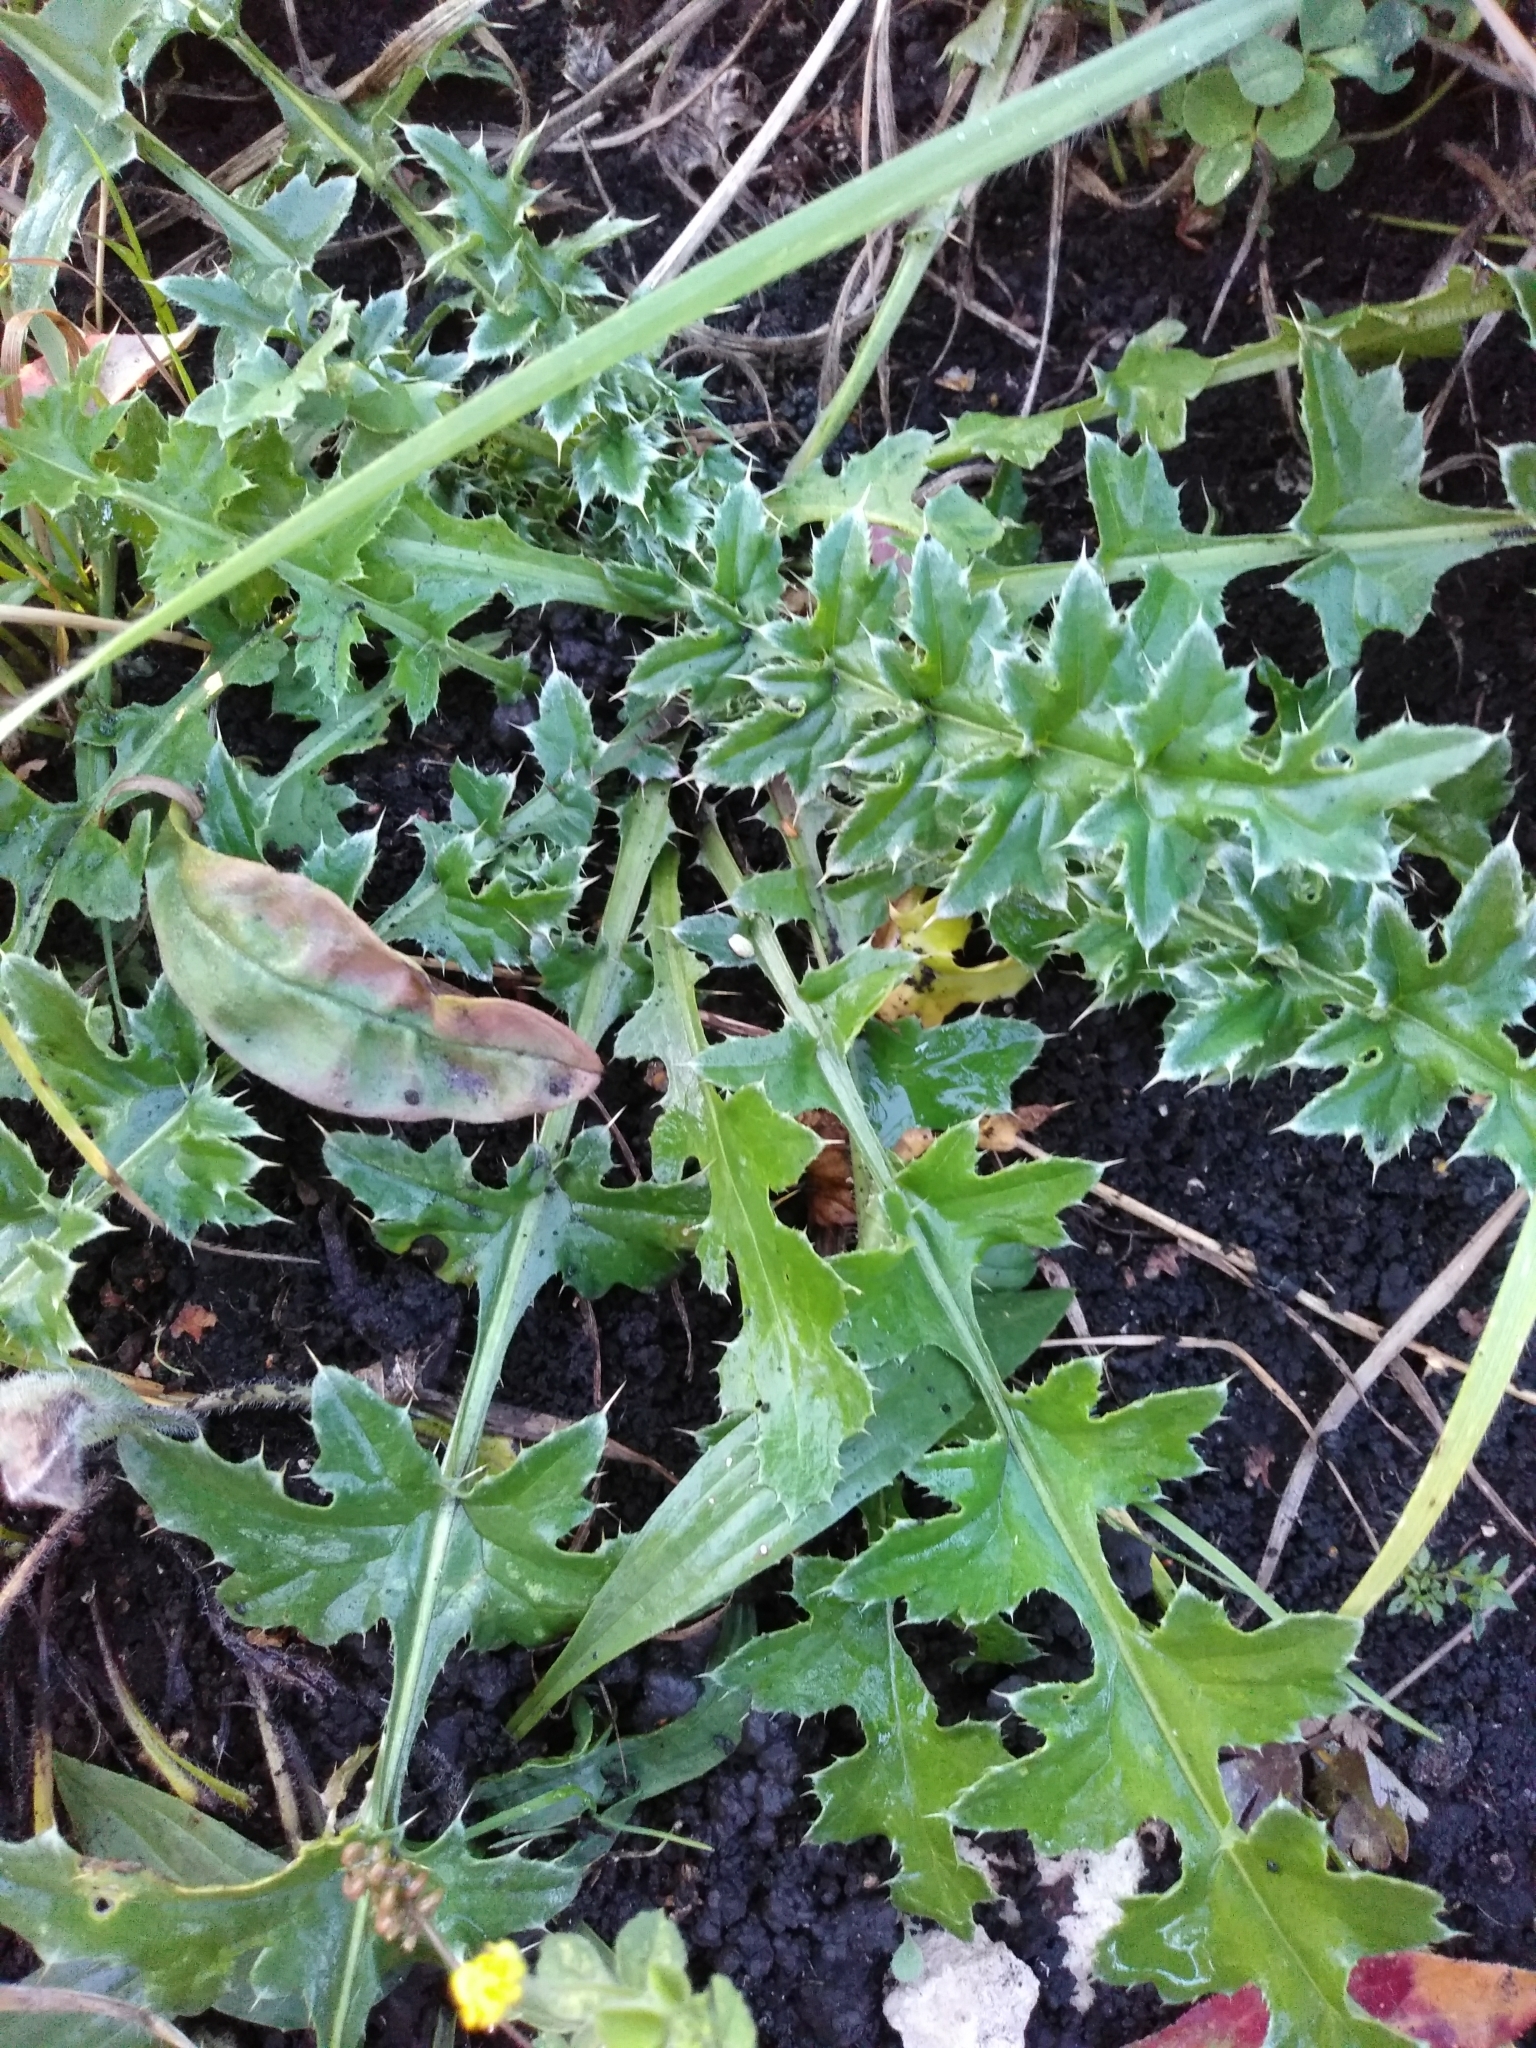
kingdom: Plantae
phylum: Tracheophyta
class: Magnoliopsida
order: Asterales
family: Asteraceae
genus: Carduus
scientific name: Carduus acanthoides
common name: Plumeless thistle
